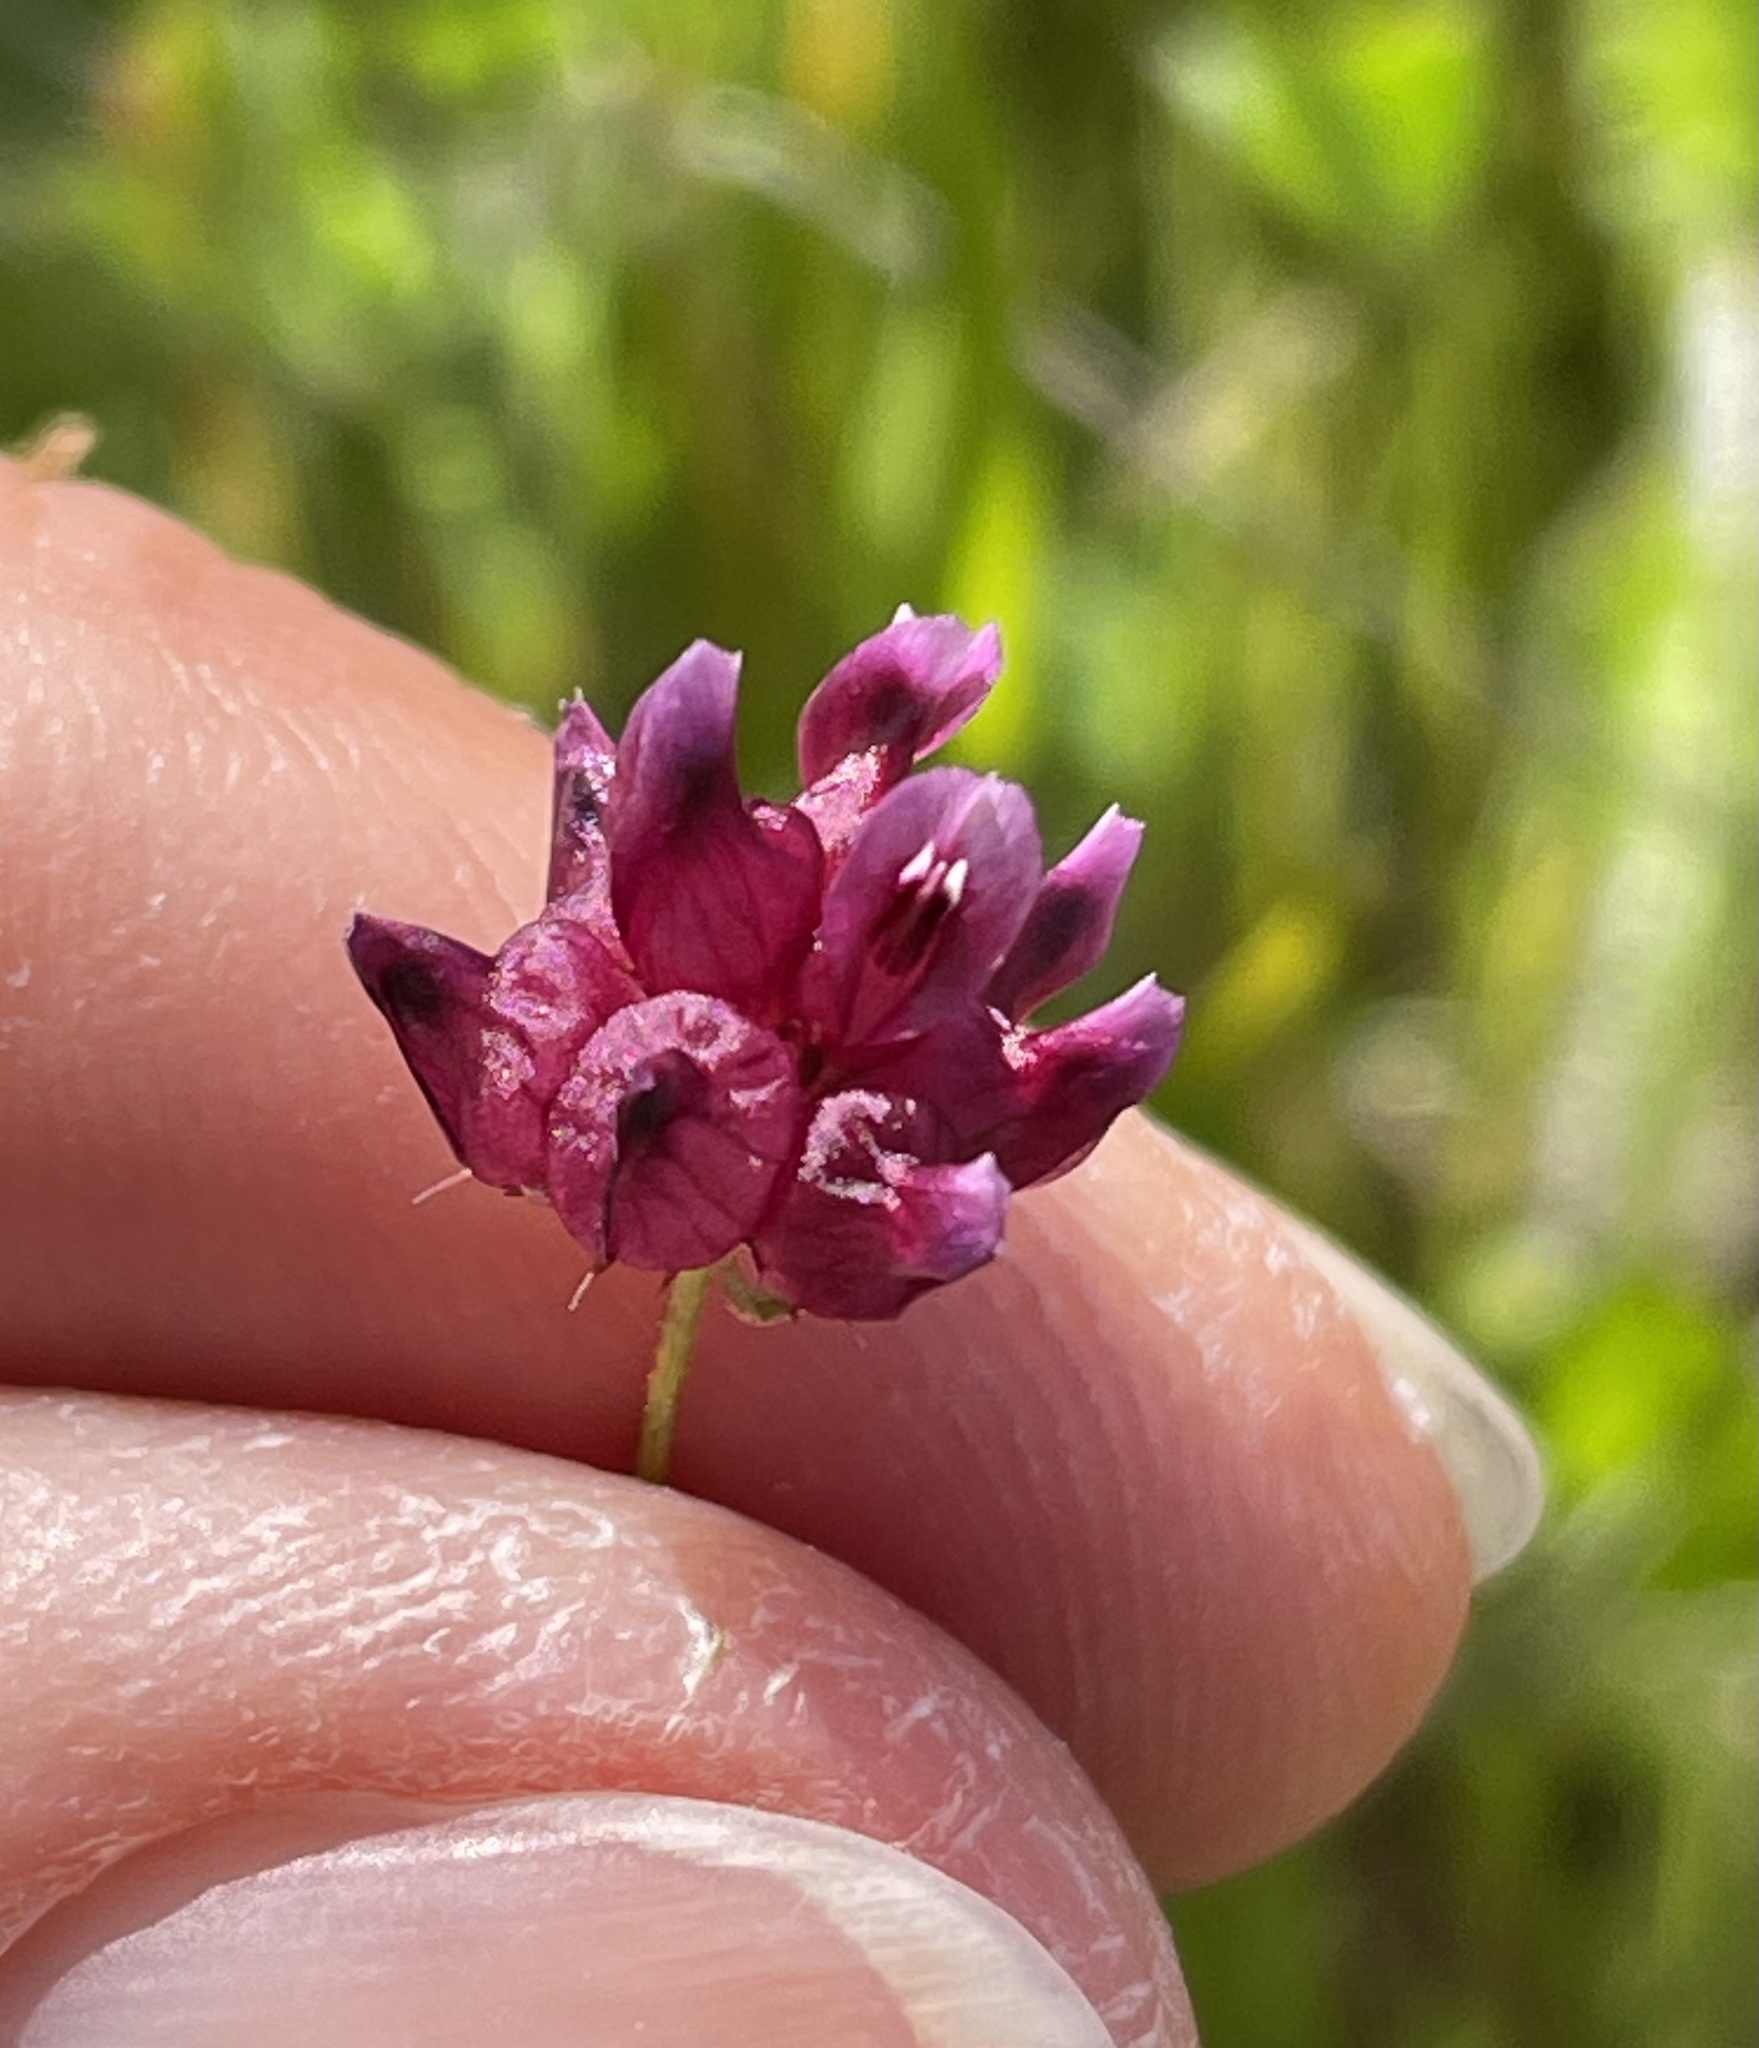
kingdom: Plantae
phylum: Tracheophyta
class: Magnoliopsida
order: Fabales
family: Fabaceae
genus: Trifolium
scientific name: Trifolium depauperatum
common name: Poverty clover
